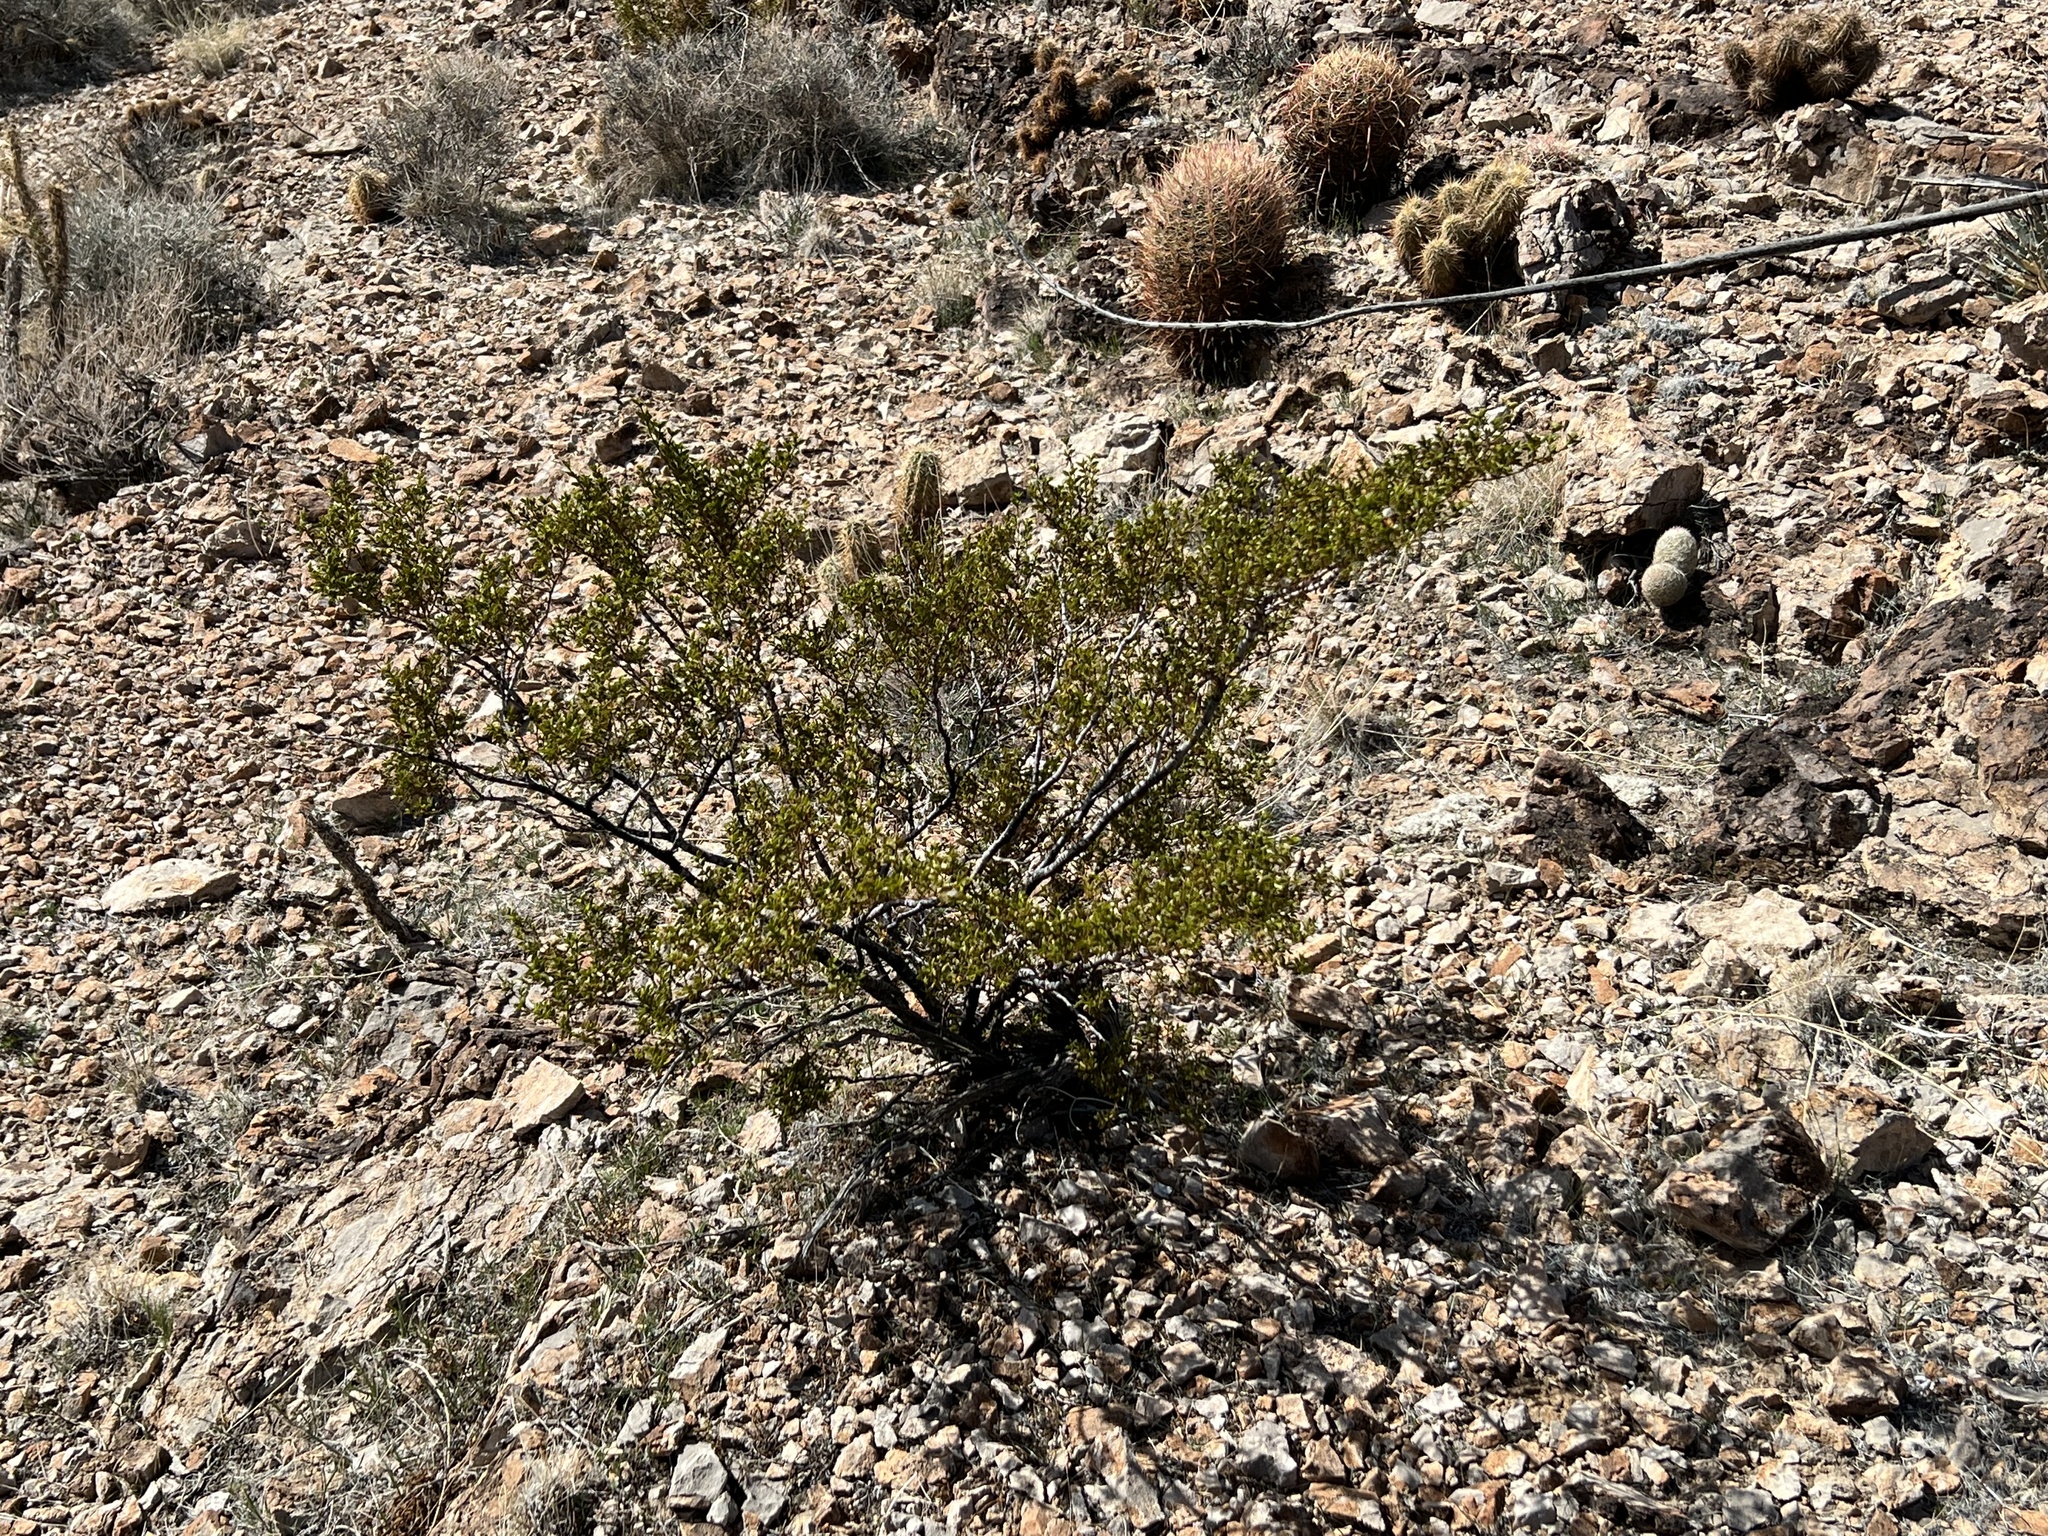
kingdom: Plantae
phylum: Tracheophyta
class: Magnoliopsida
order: Zygophyllales
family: Zygophyllaceae
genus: Larrea
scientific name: Larrea tridentata
